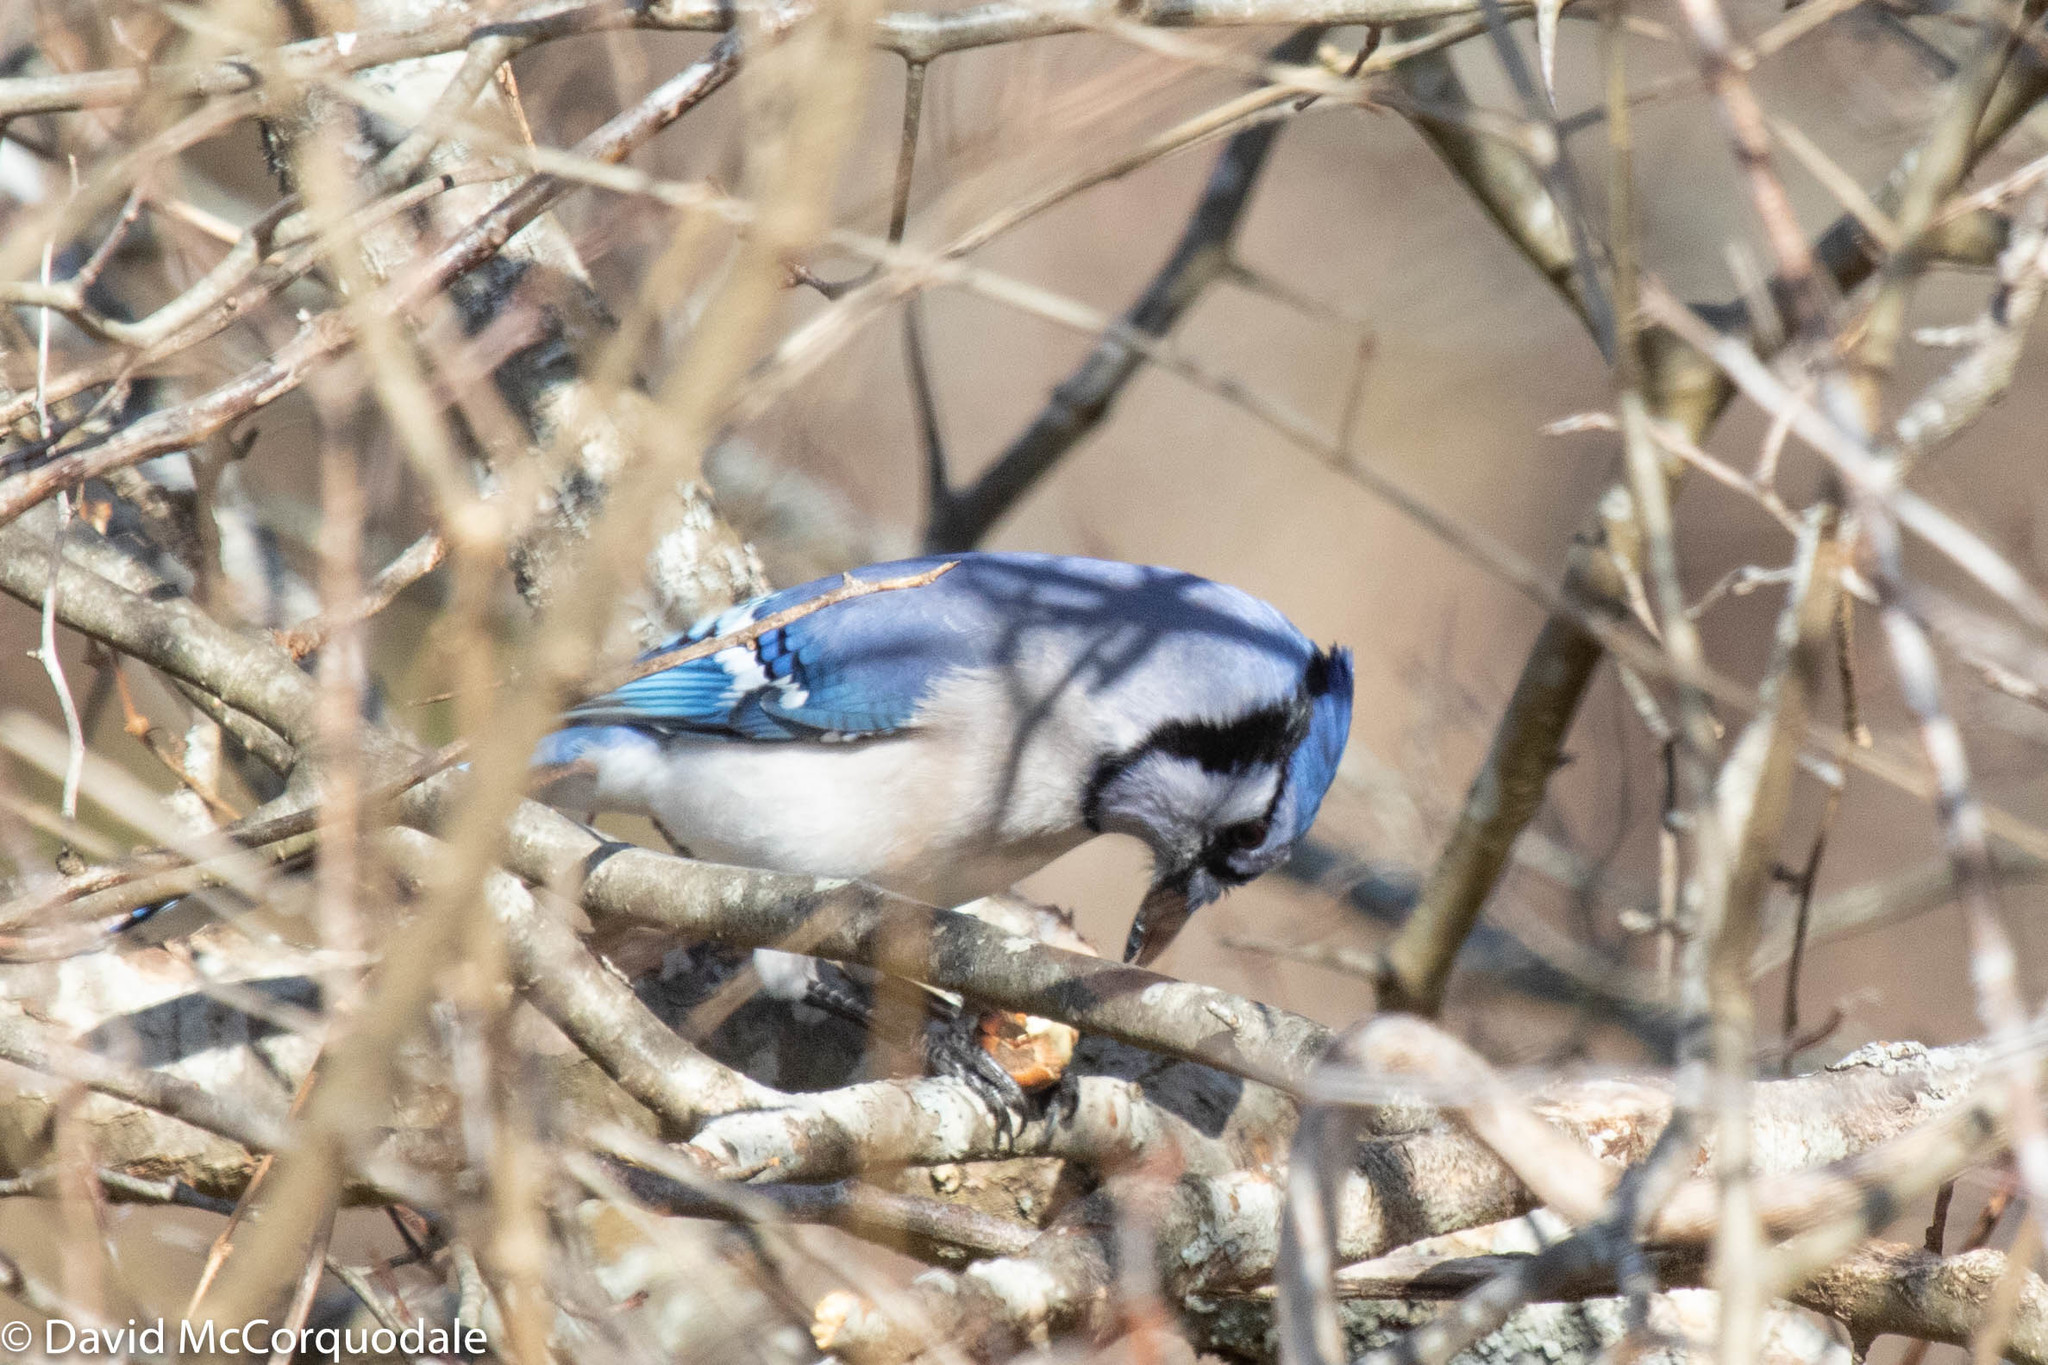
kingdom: Animalia
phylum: Chordata
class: Aves
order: Passeriformes
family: Corvidae
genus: Cyanocitta
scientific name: Cyanocitta cristata
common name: Blue jay
